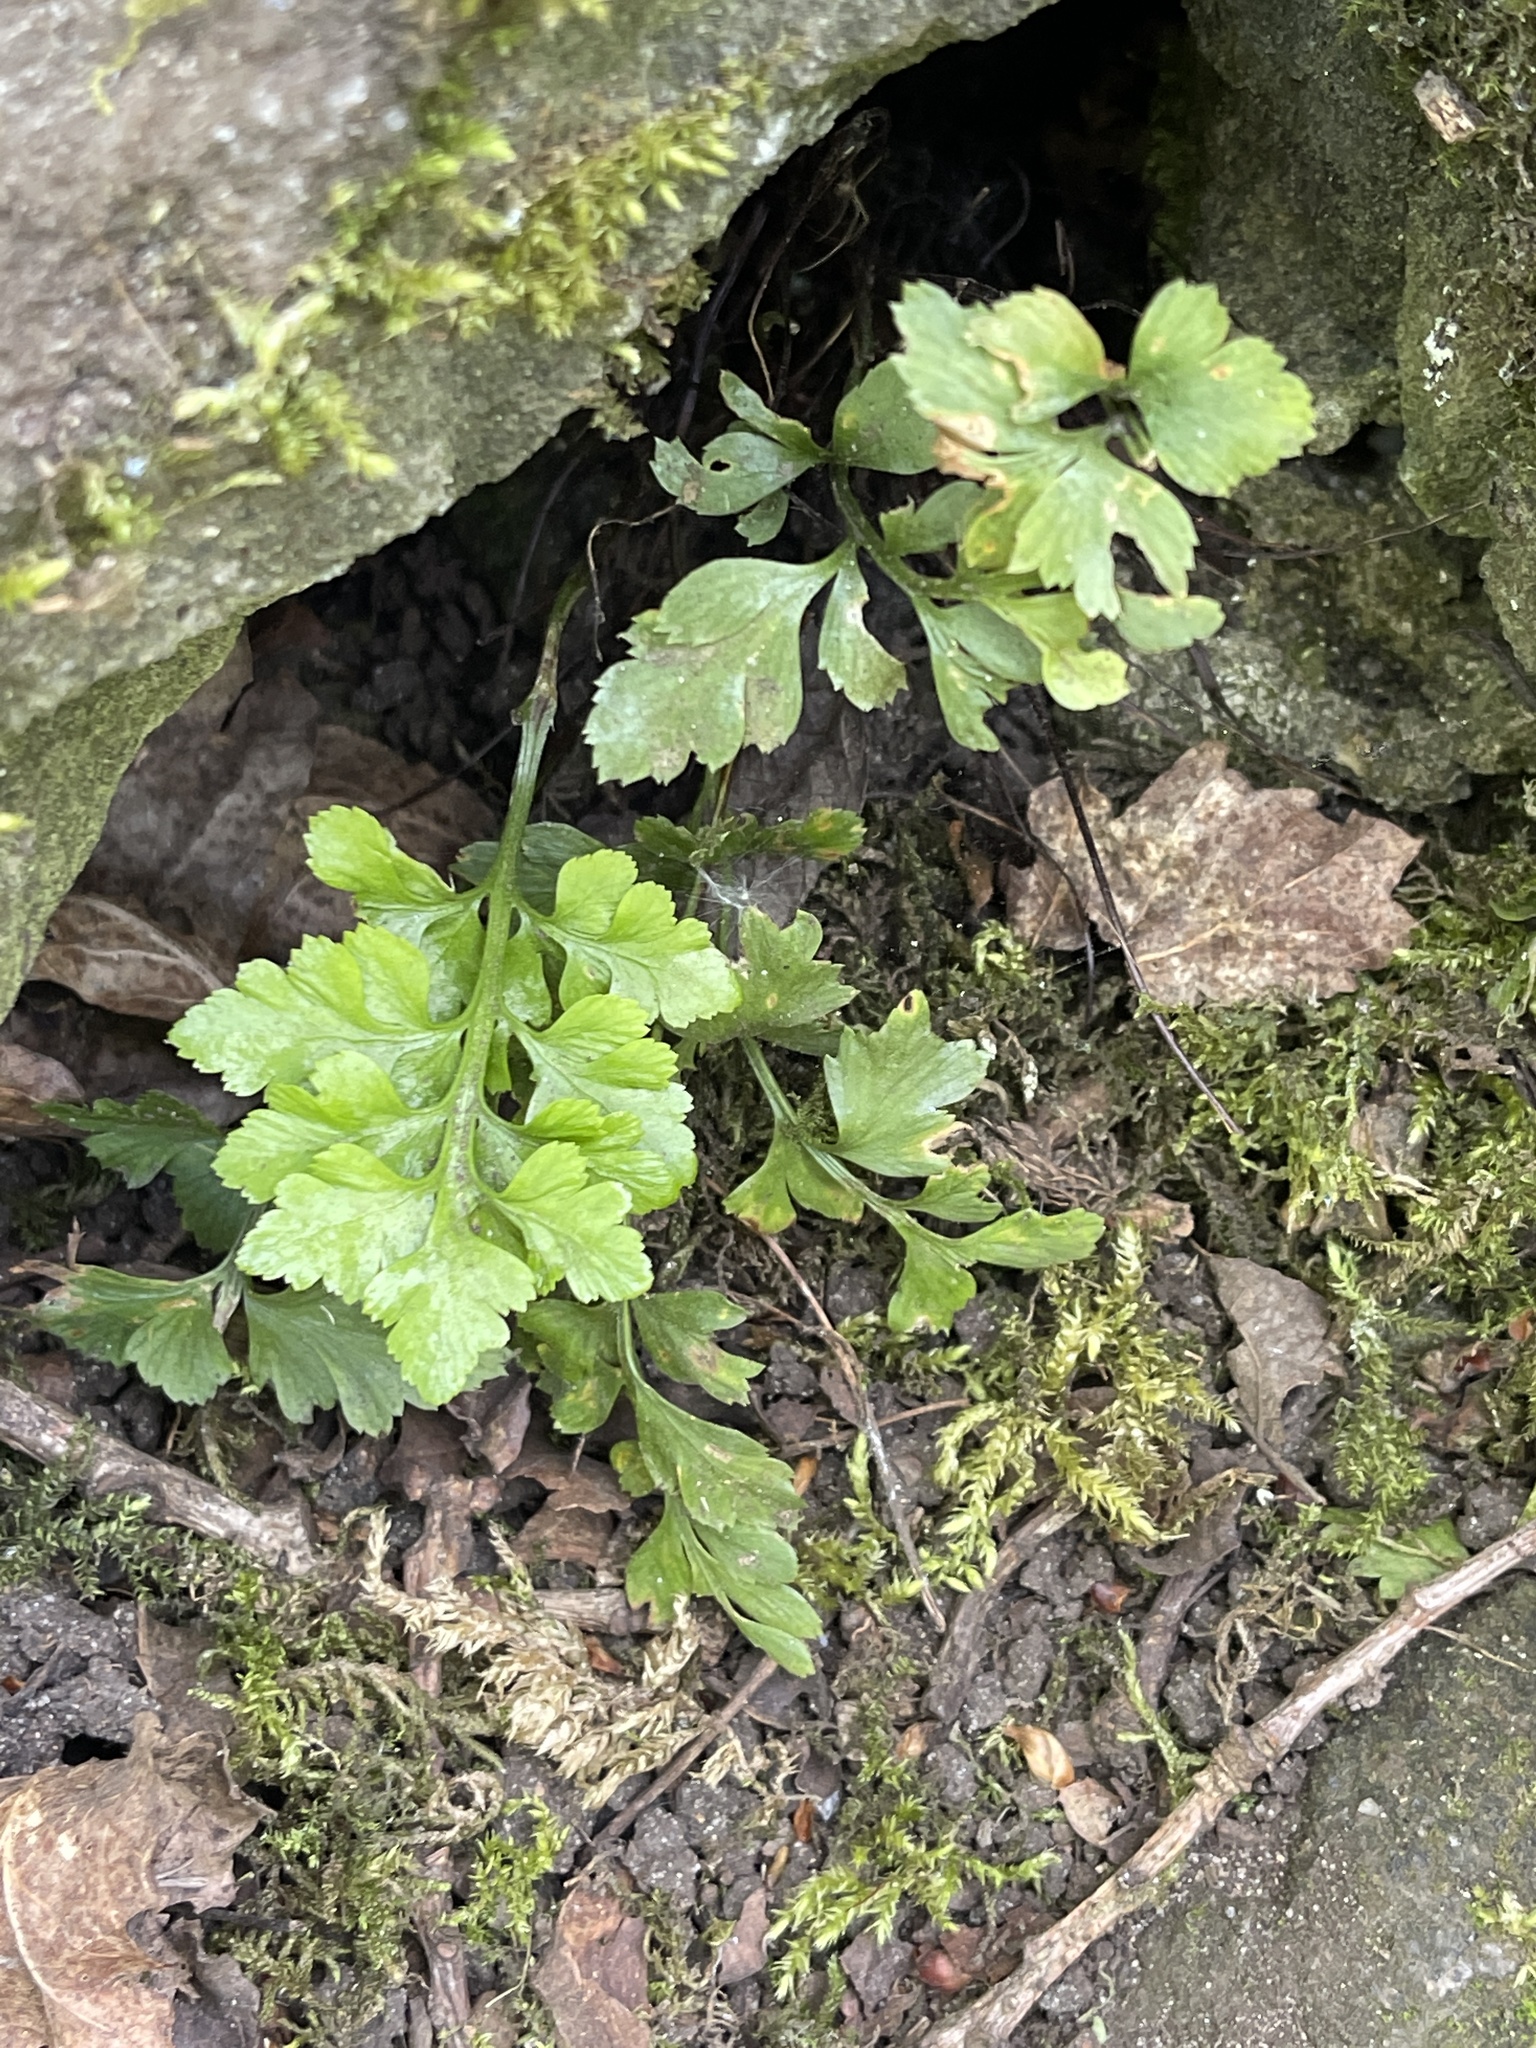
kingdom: Plantae
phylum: Tracheophyta
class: Polypodiopsida
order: Polypodiales
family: Aspleniaceae
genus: Asplenium
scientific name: Asplenium adiantum-nigrum
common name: Black spleenwort
